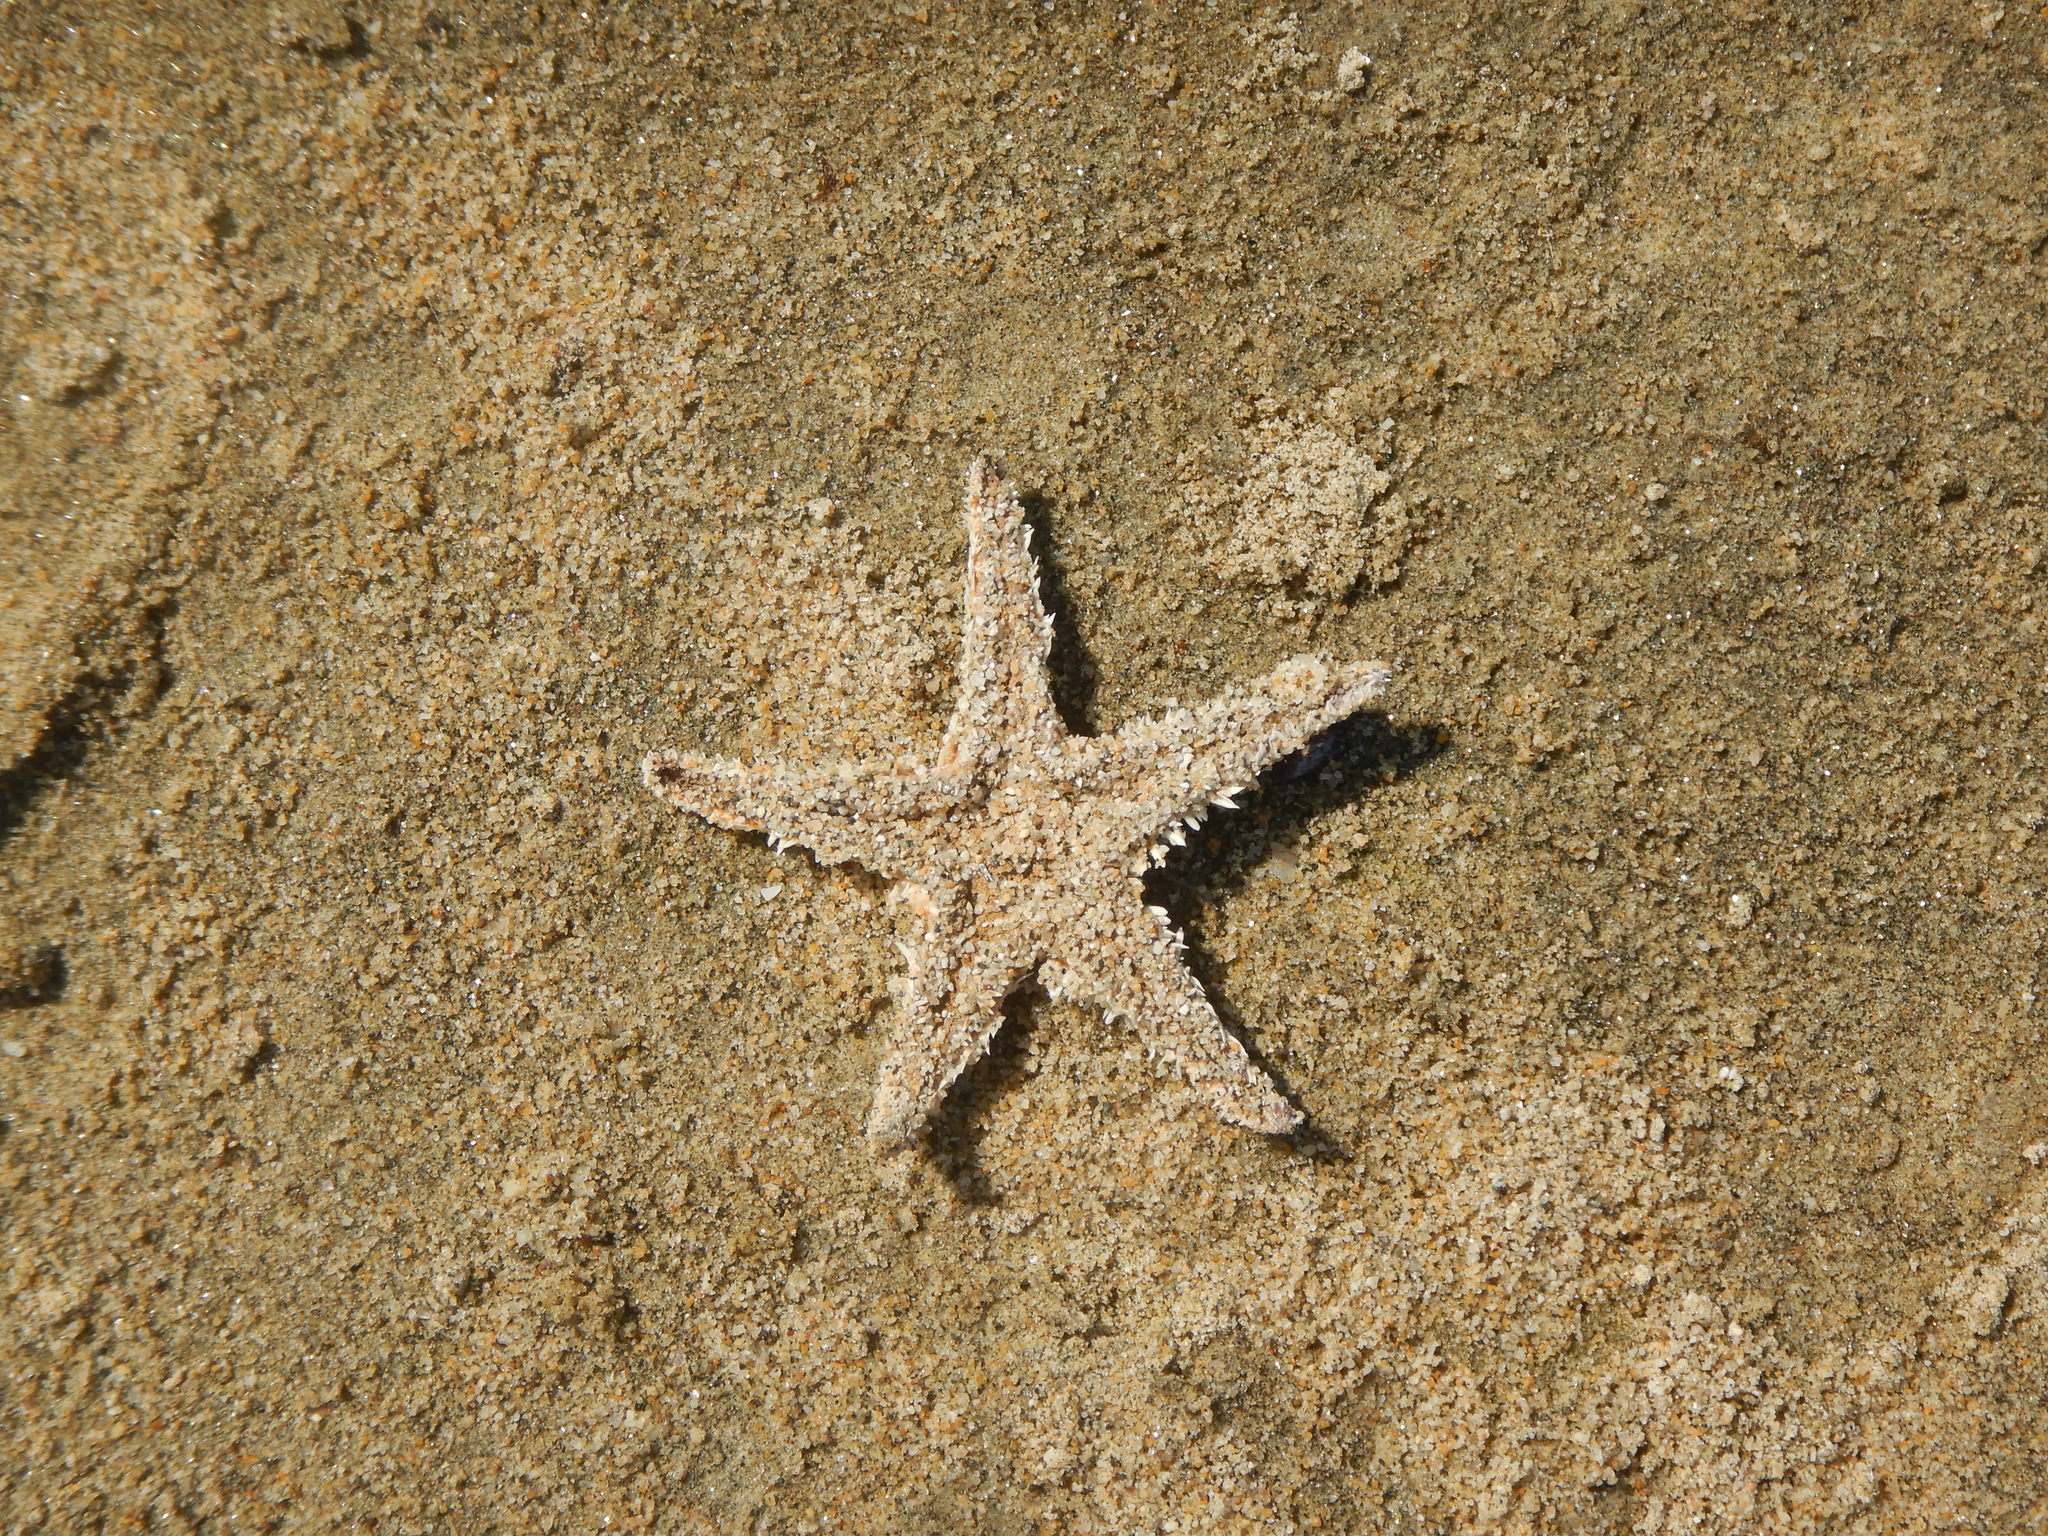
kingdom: Animalia
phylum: Echinodermata
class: Asteroidea
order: Paxillosida
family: Astropectinidae
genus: Astropecten
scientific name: Astropecten
